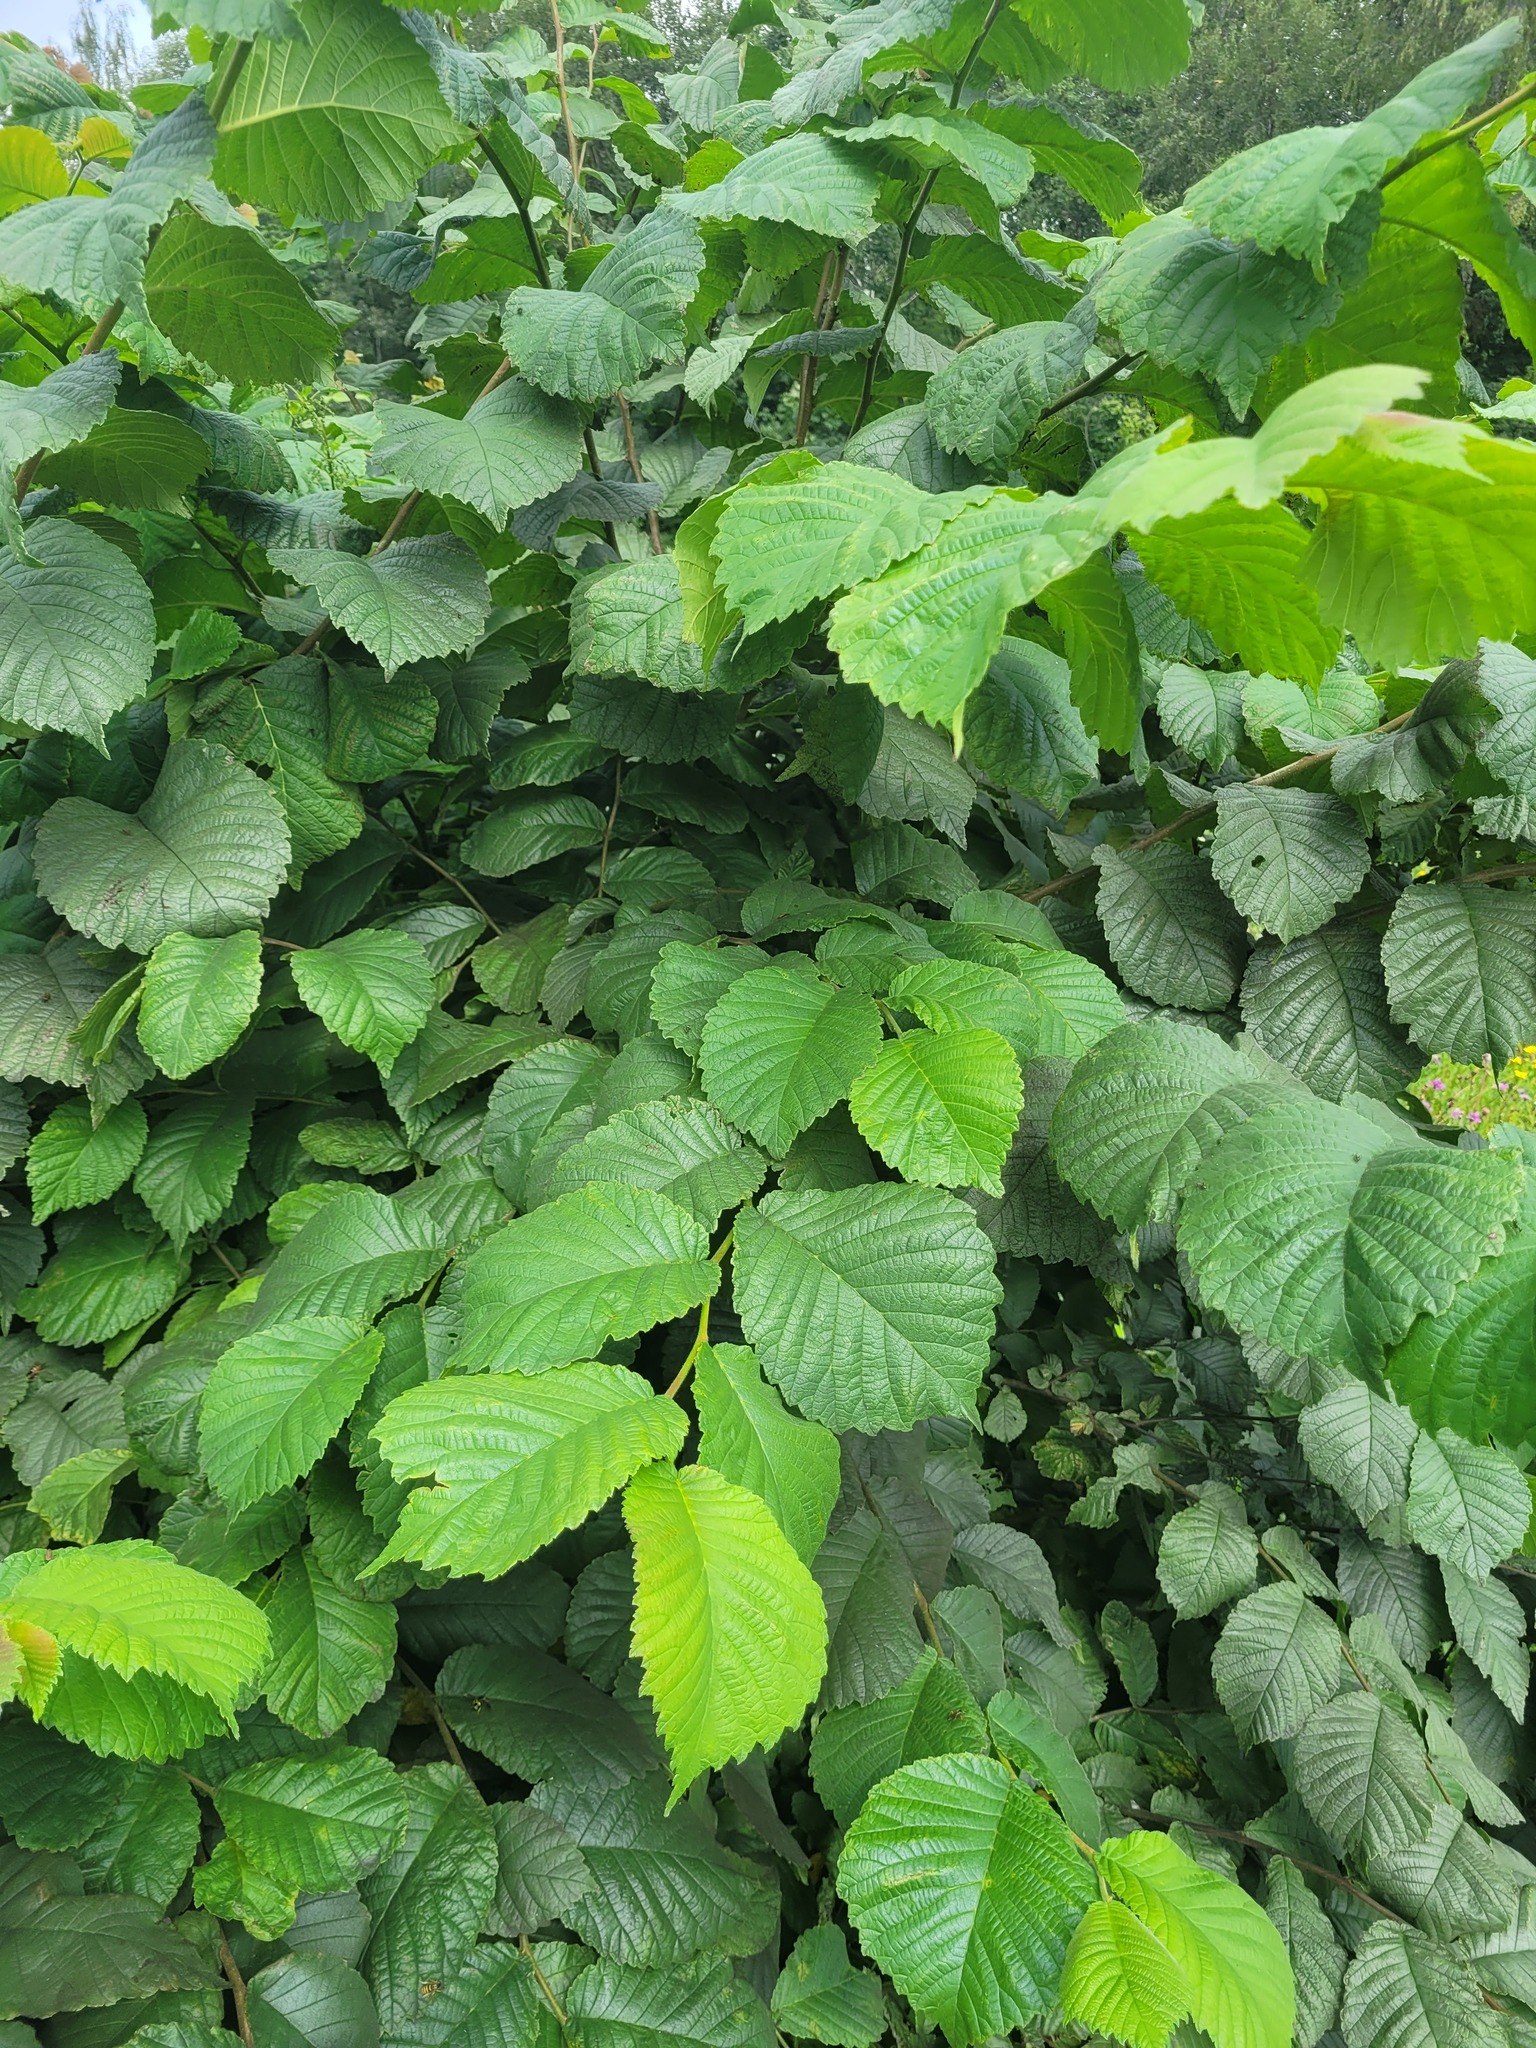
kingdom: Plantae
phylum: Tracheophyta
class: Magnoliopsida
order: Rosales
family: Ulmaceae
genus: Ulmus
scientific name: Ulmus glabra
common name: Wych elm
